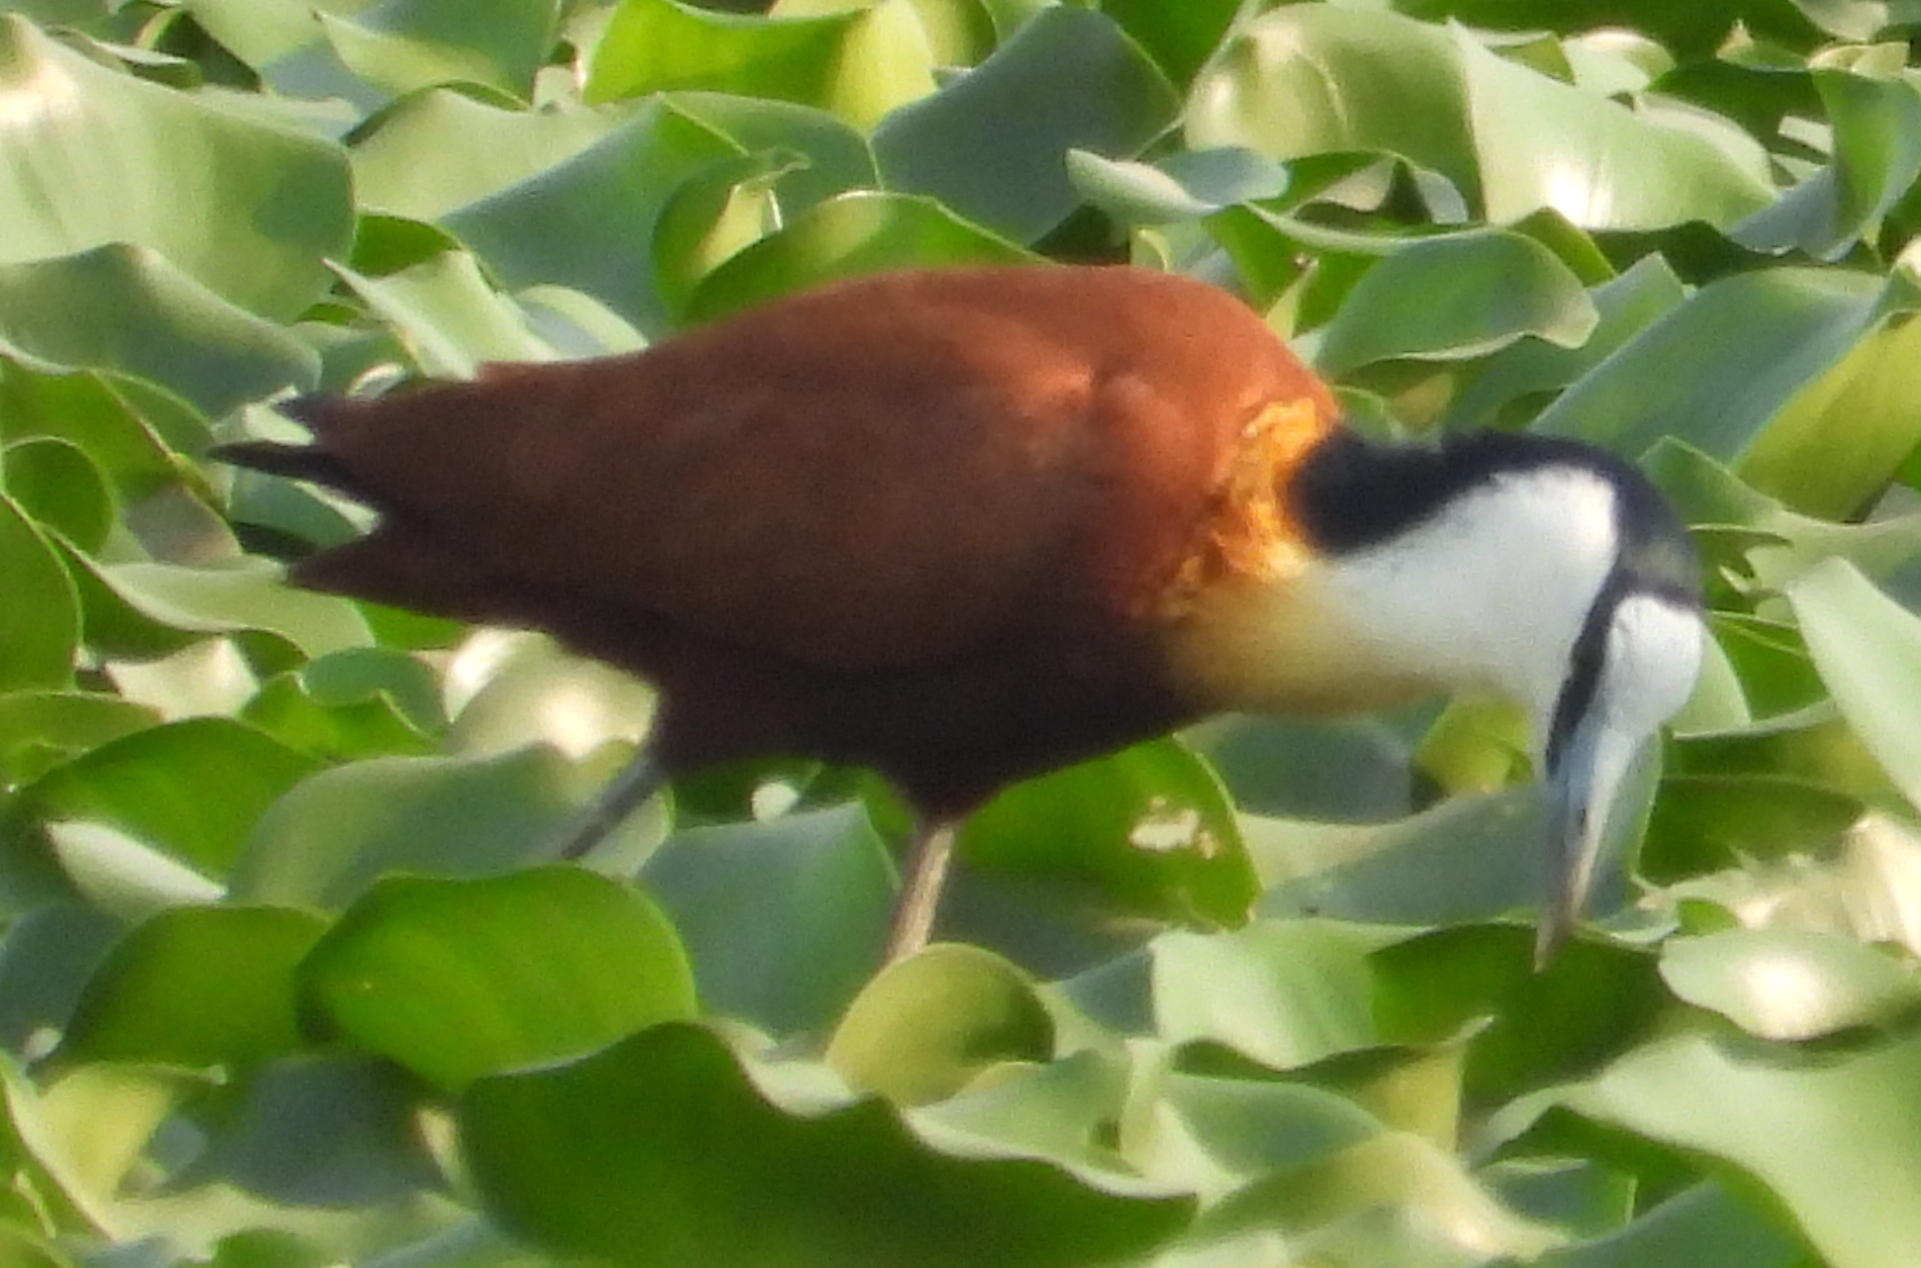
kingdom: Animalia
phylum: Chordata
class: Aves
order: Charadriiformes
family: Jacanidae
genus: Actophilornis
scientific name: Actophilornis africanus
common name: African jacana
